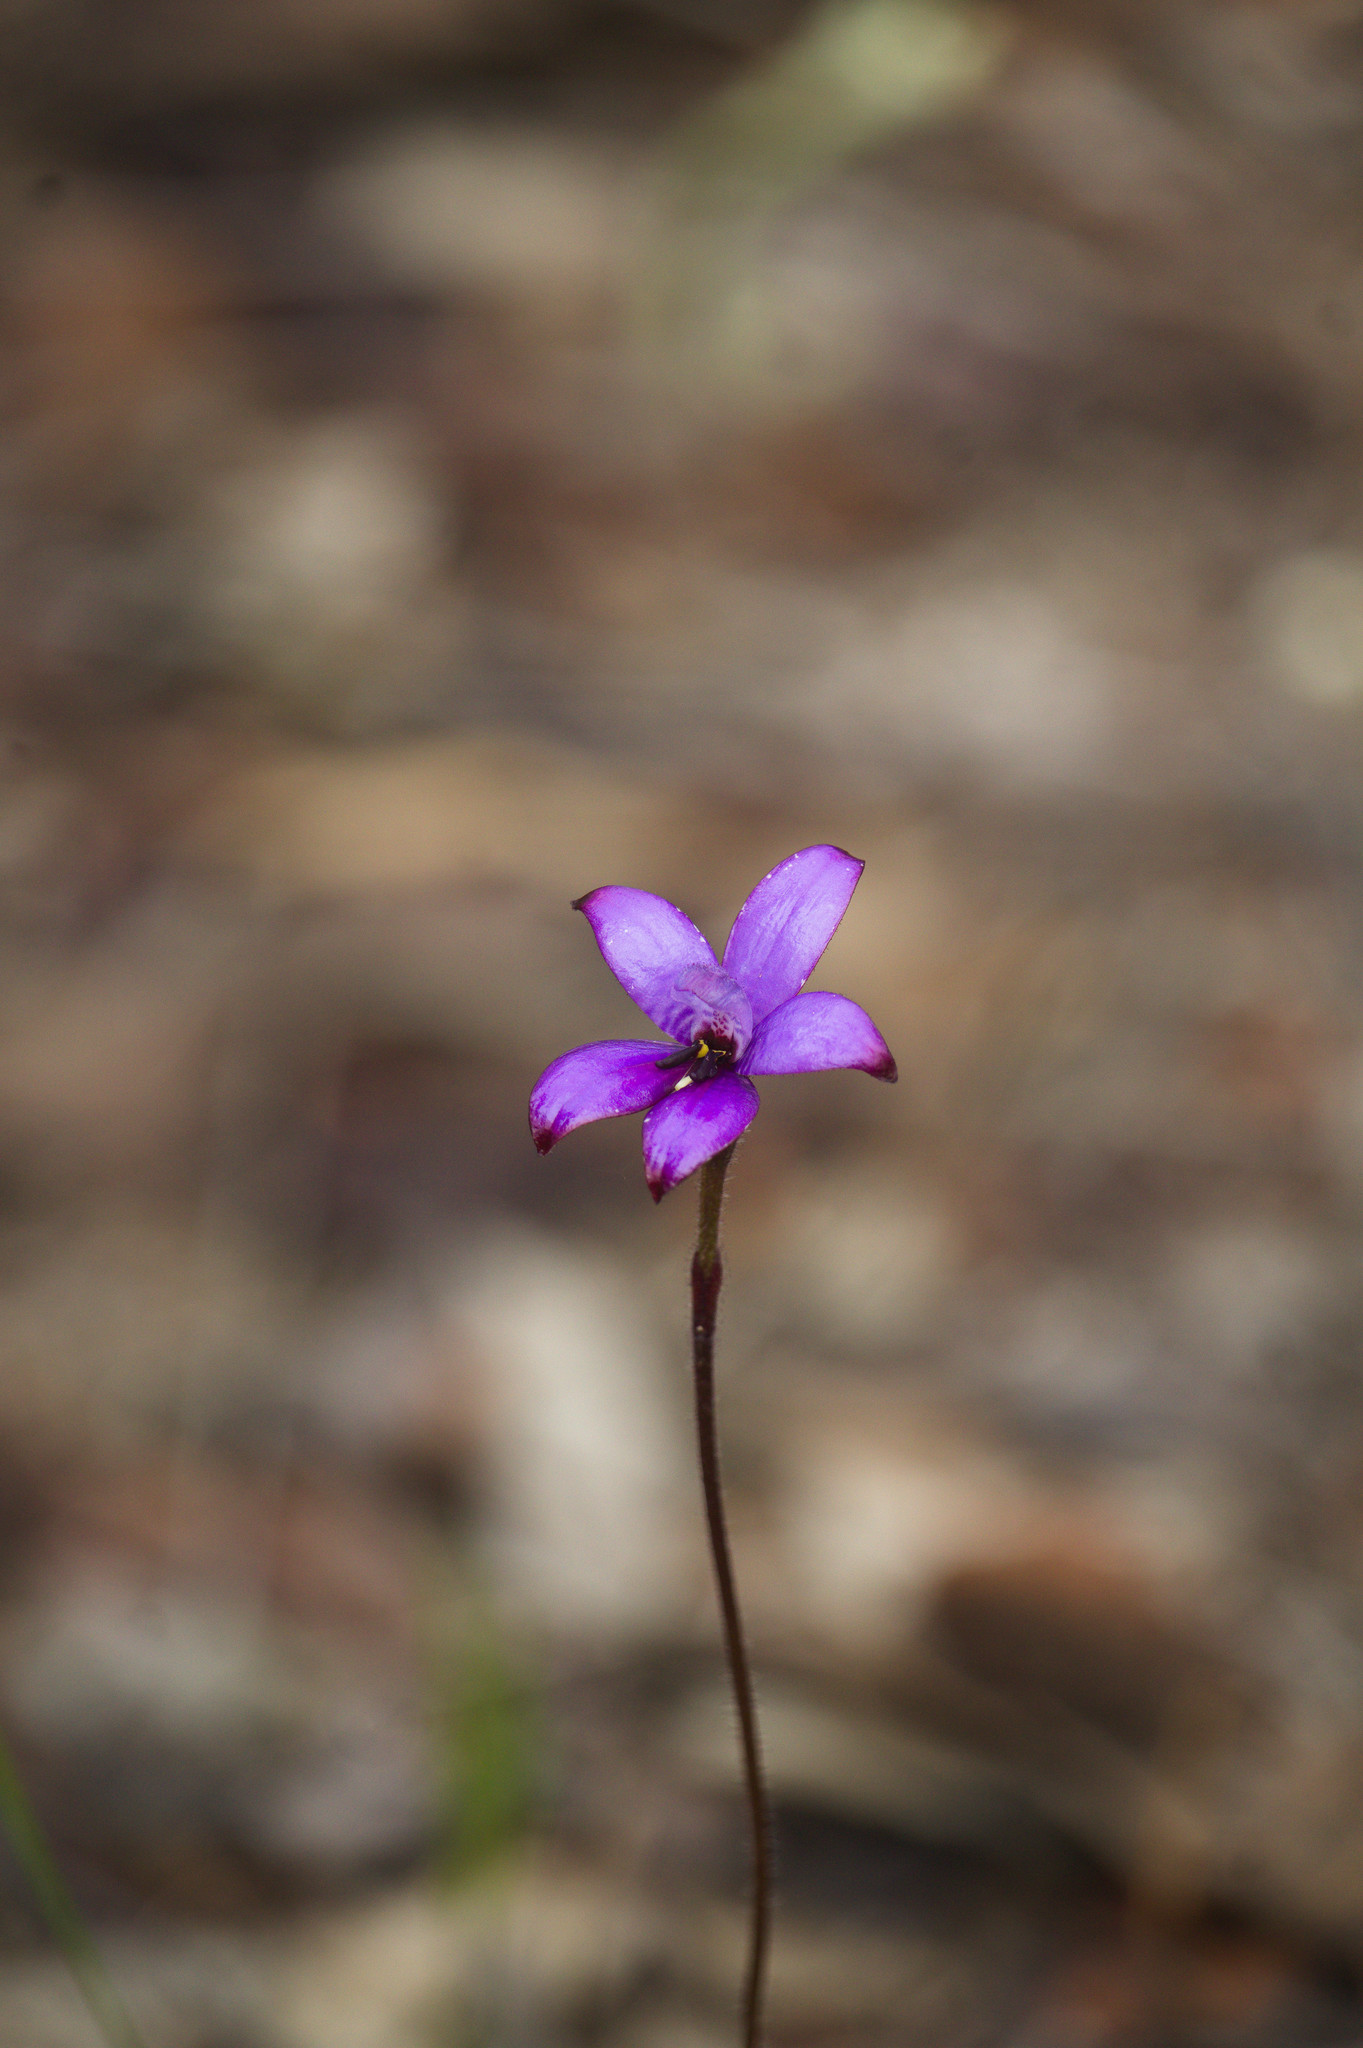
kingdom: Plantae
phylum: Tracheophyta
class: Liliopsida
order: Asparagales
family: Orchidaceae
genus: Caladenia
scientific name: Caladenia brunonis
